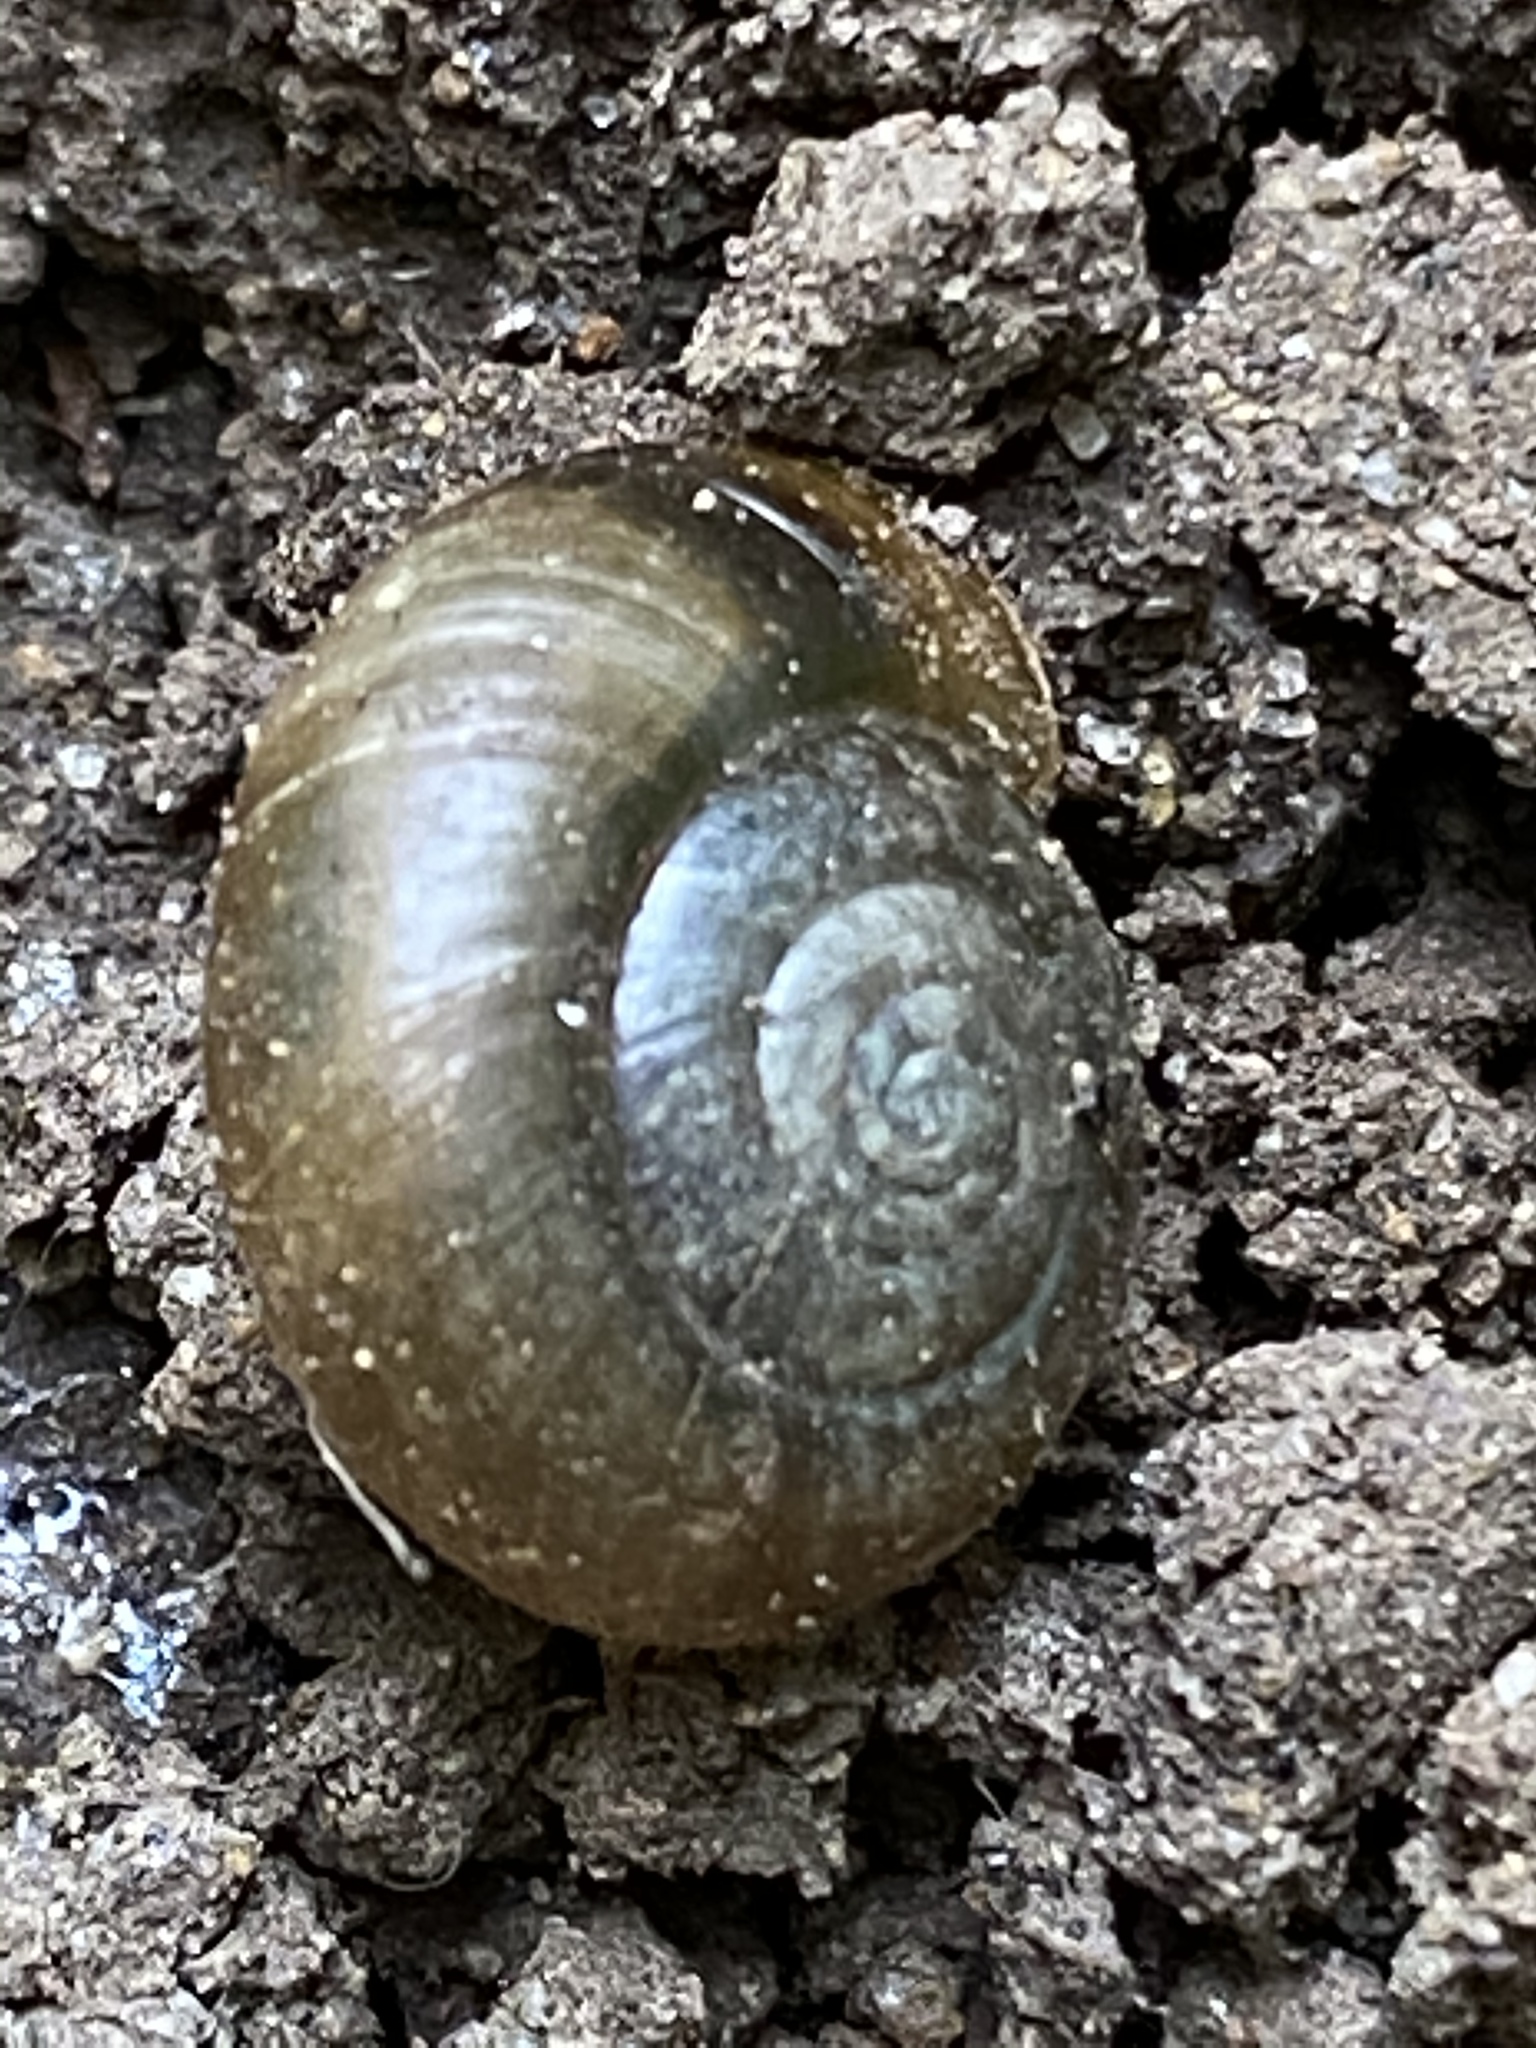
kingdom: Animalia
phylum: Mollusca
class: Gastropoda
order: Stylommatophora
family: Oxychilidae
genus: Oxychilus
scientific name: Oxychilus draparnaudi
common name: Draparnaud's glass snail
